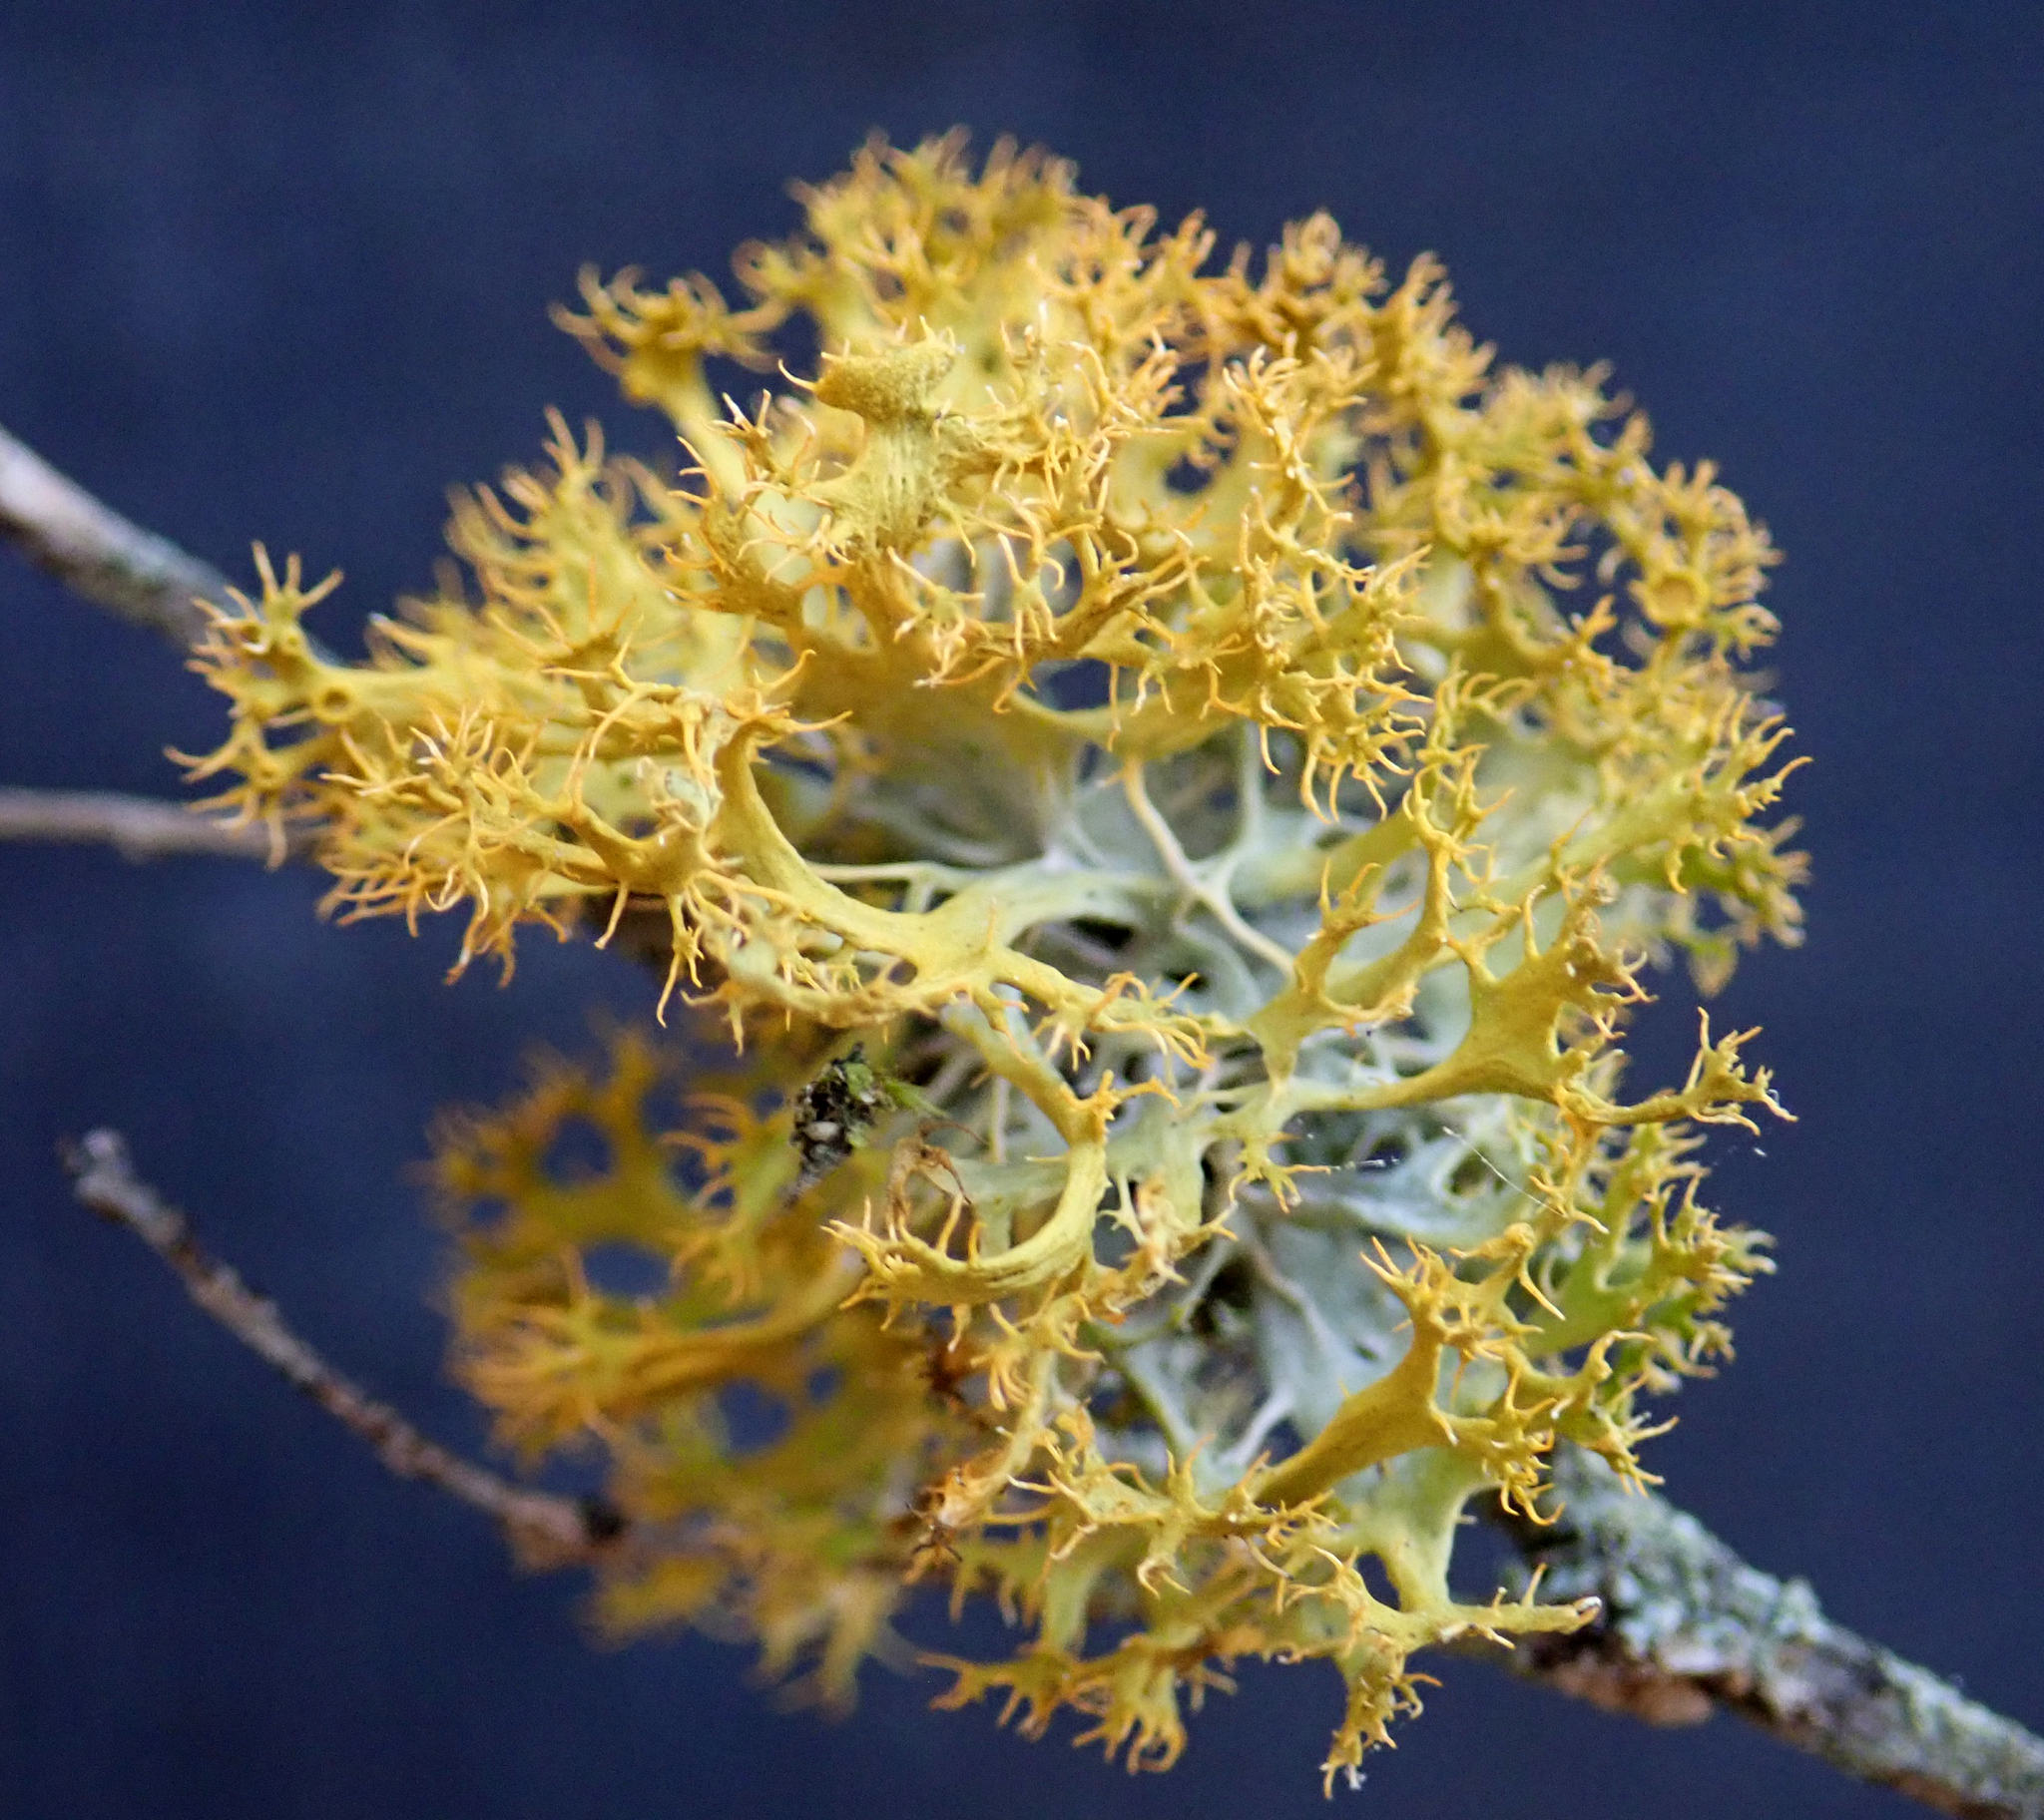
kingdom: Fungi
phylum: Ascomycota
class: Lecanoromycetes
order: Teloschistales
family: Teloschistaceae
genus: Niorma
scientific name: Niorma chrysophthalma
